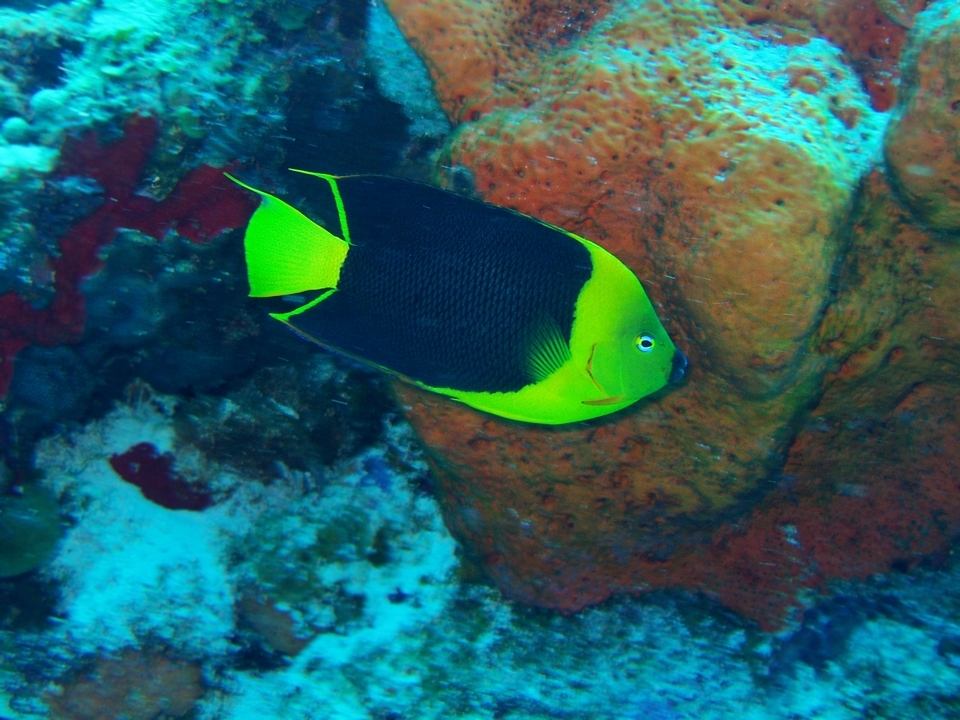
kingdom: Animalia
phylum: Chordata
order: Perciformes
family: Pomacanthidae
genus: Holacanthus
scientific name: Holacanthus tricolor
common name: Rock beauty
